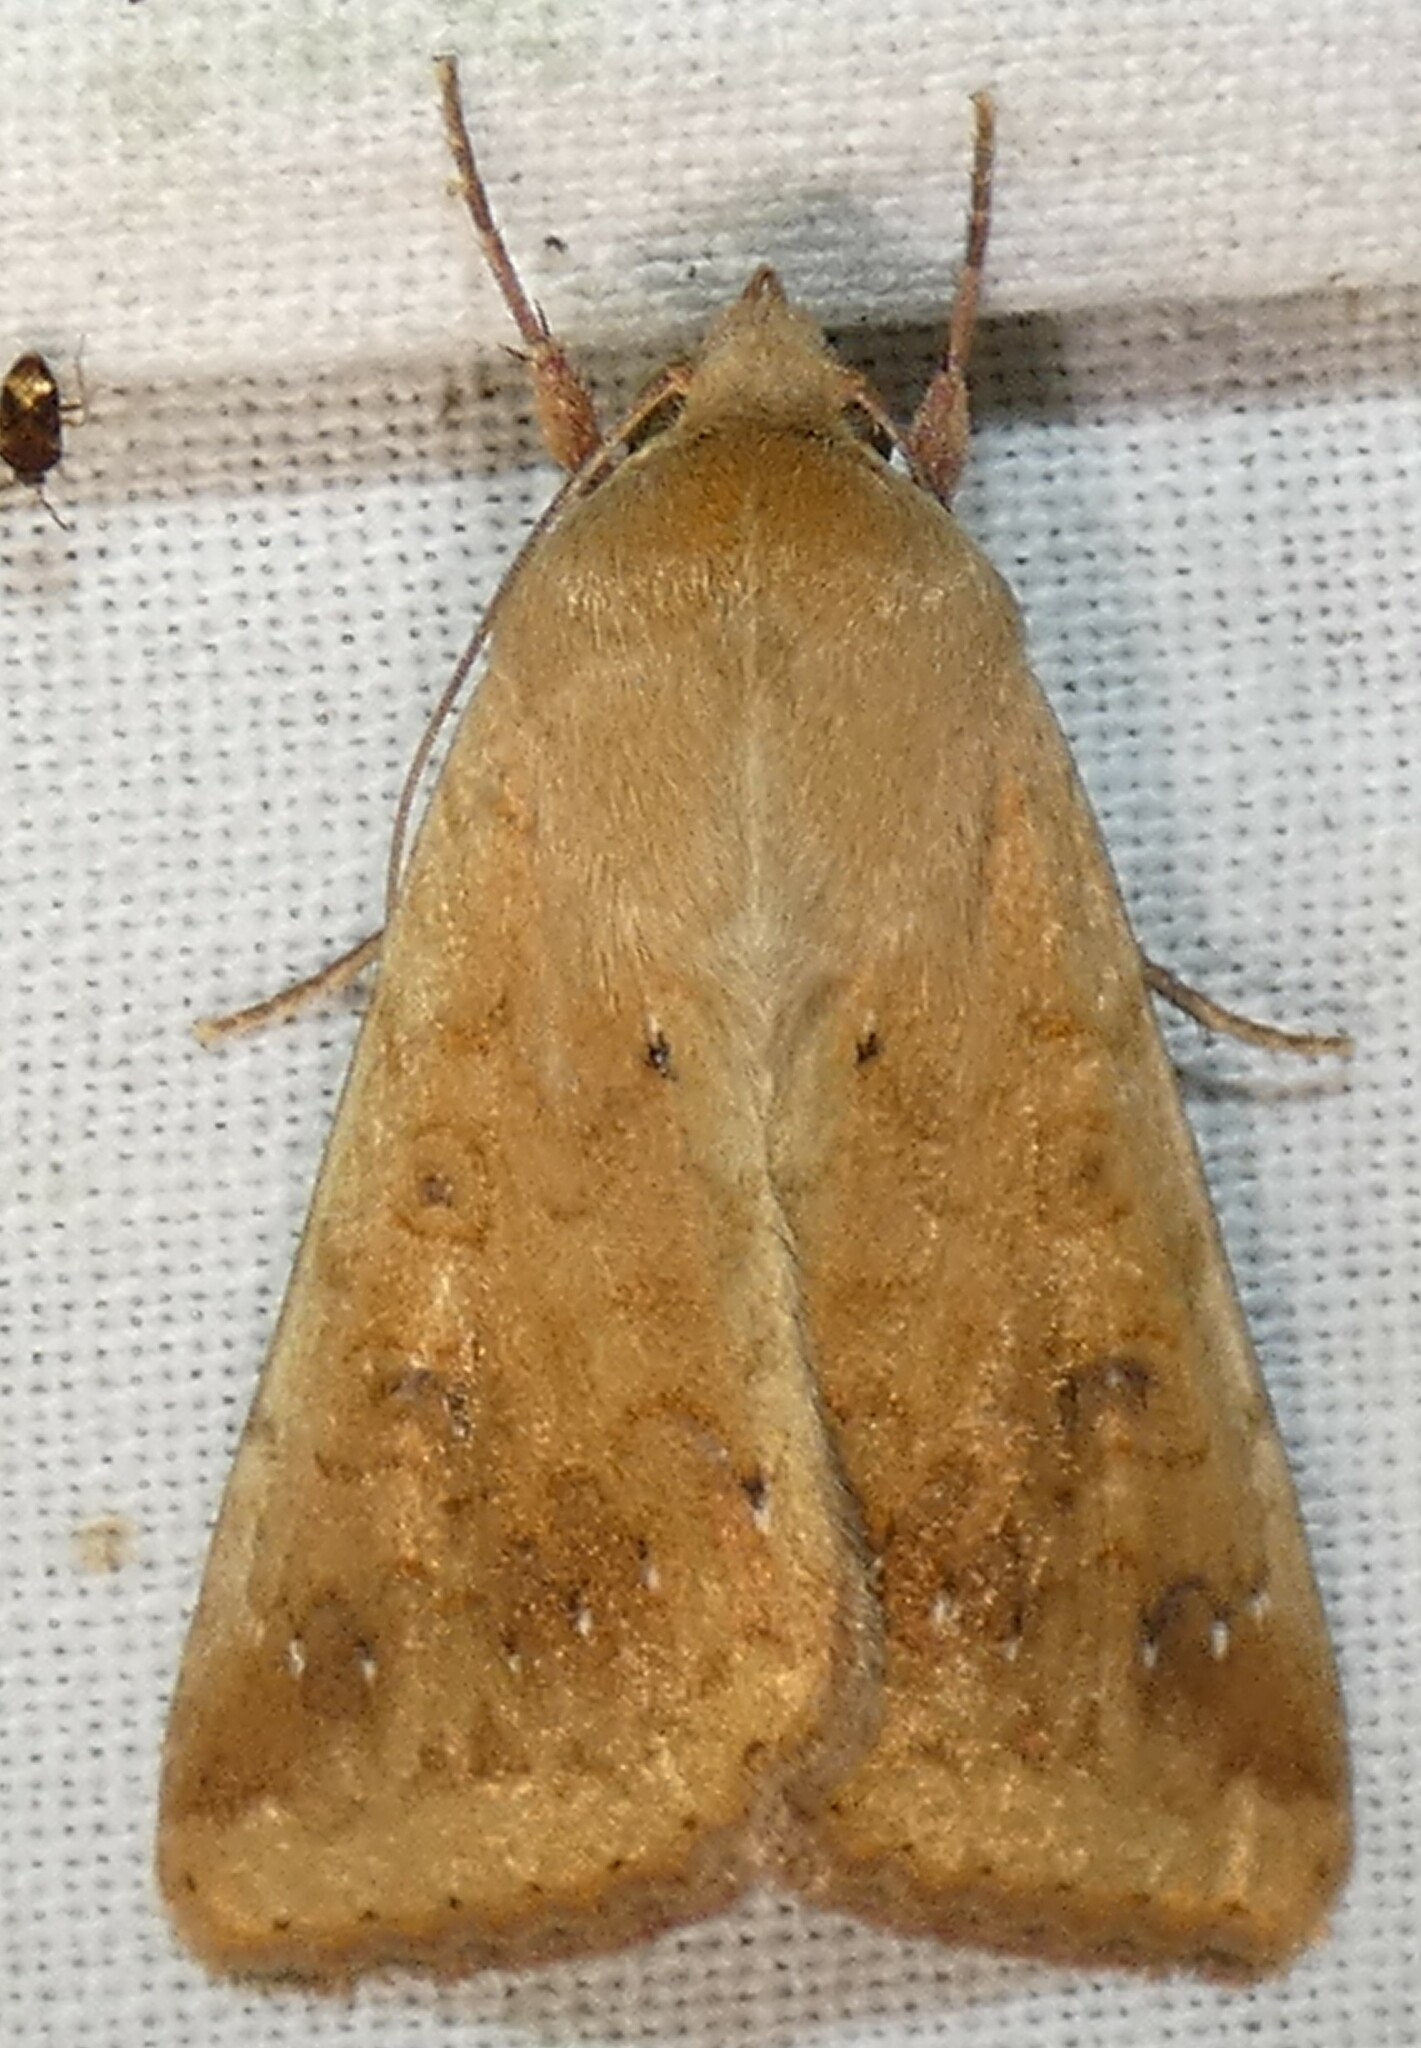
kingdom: Animalia
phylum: Arthropoda
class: Insecta
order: Lepidoptera
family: Noctuidae
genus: Helicoverpa
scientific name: Helicoverpa zea
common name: Bollworm
